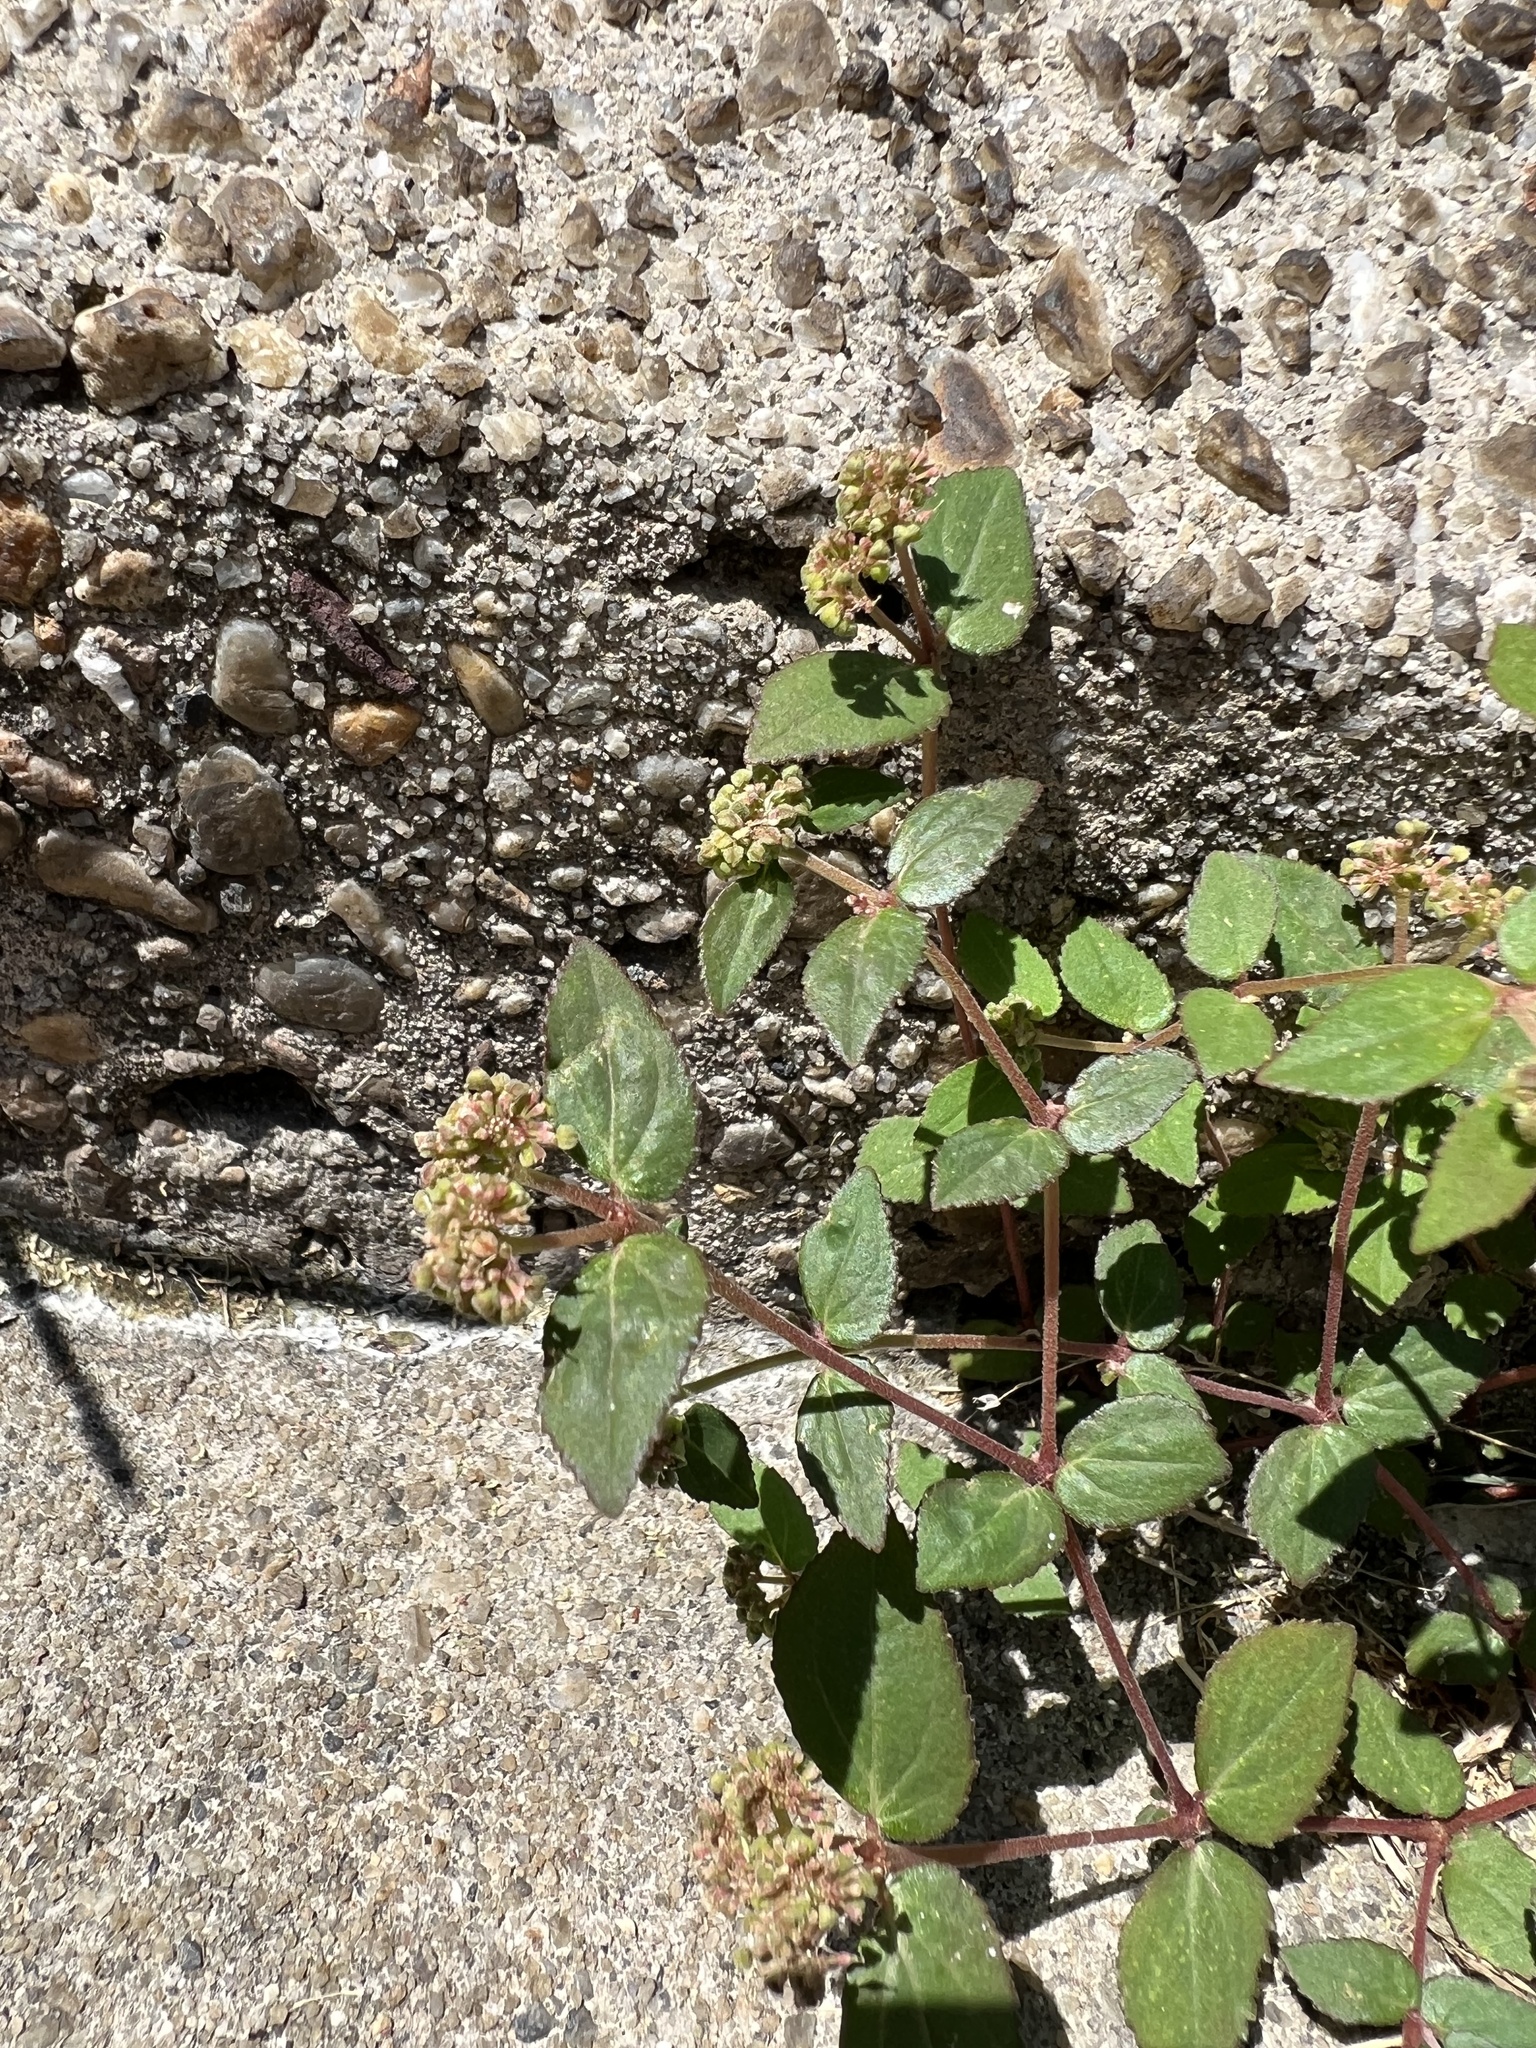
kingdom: Plantae
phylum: Tracheophyta
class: Magnoliopsida
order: Malpighiales
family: Euphorbiaceae
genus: Euphorbia
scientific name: Euphorbia ophthalmica
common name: Florida hammock sandmat
